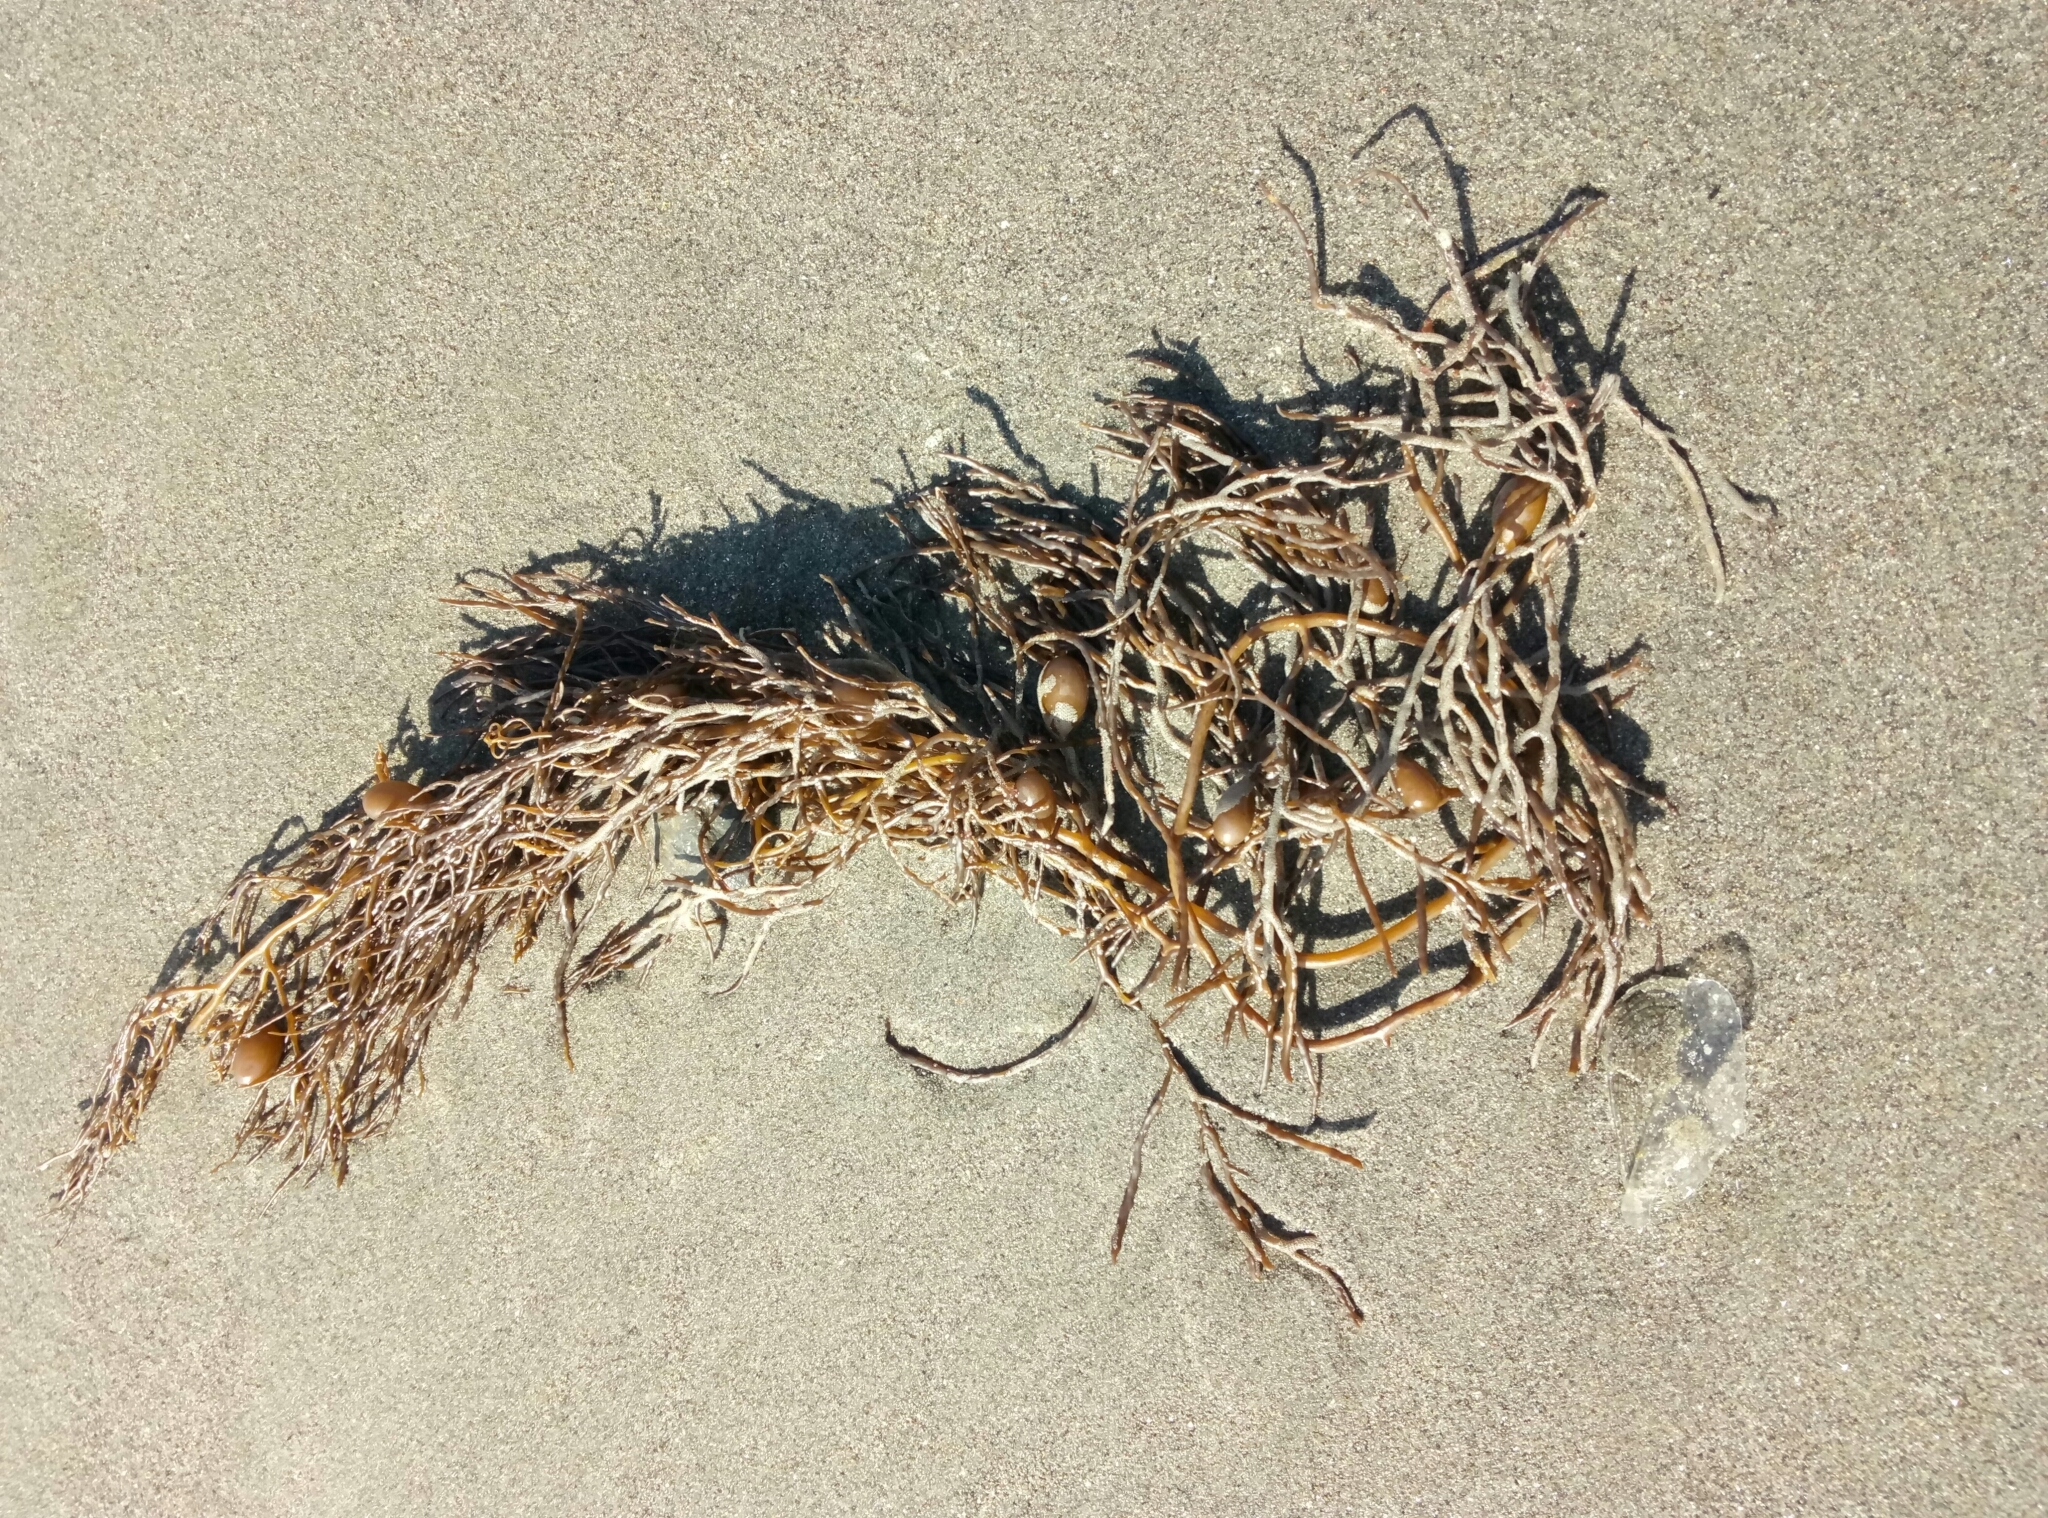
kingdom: Chromista
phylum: Ochrophyta
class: Phaeophyceae
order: Fucales
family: Sargassaceae
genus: Cystophora
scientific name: Cystophora retroflexa
